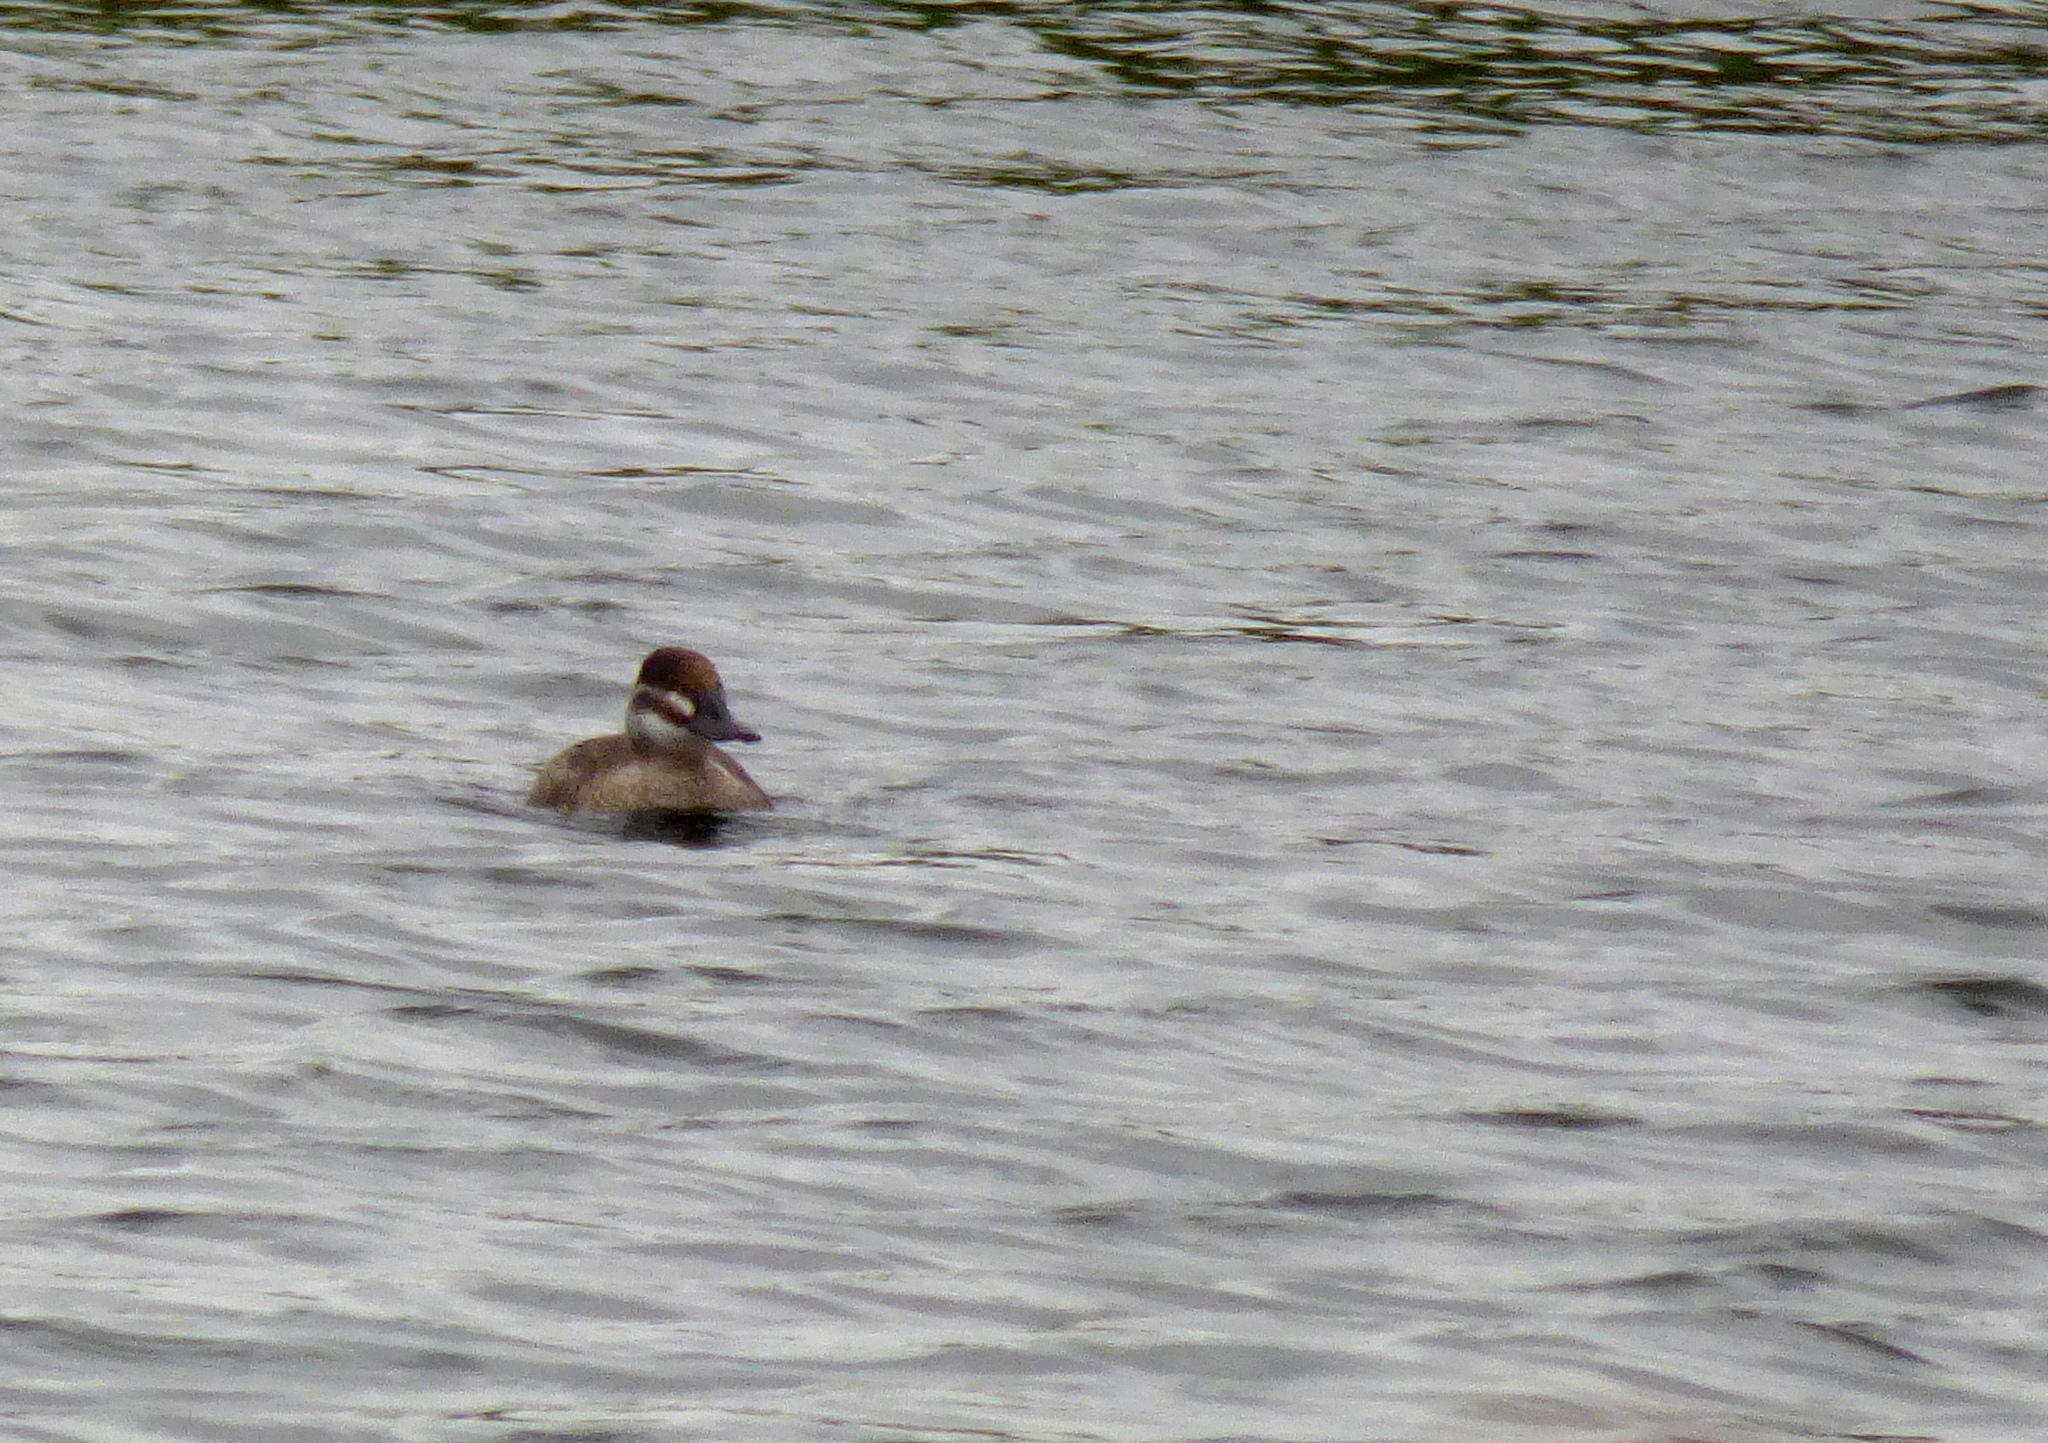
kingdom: Animalia
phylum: Chordata
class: Aves
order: Anseriformes
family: Anatidae
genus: Oxyura
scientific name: Oxyura vittata
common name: Lake duck
